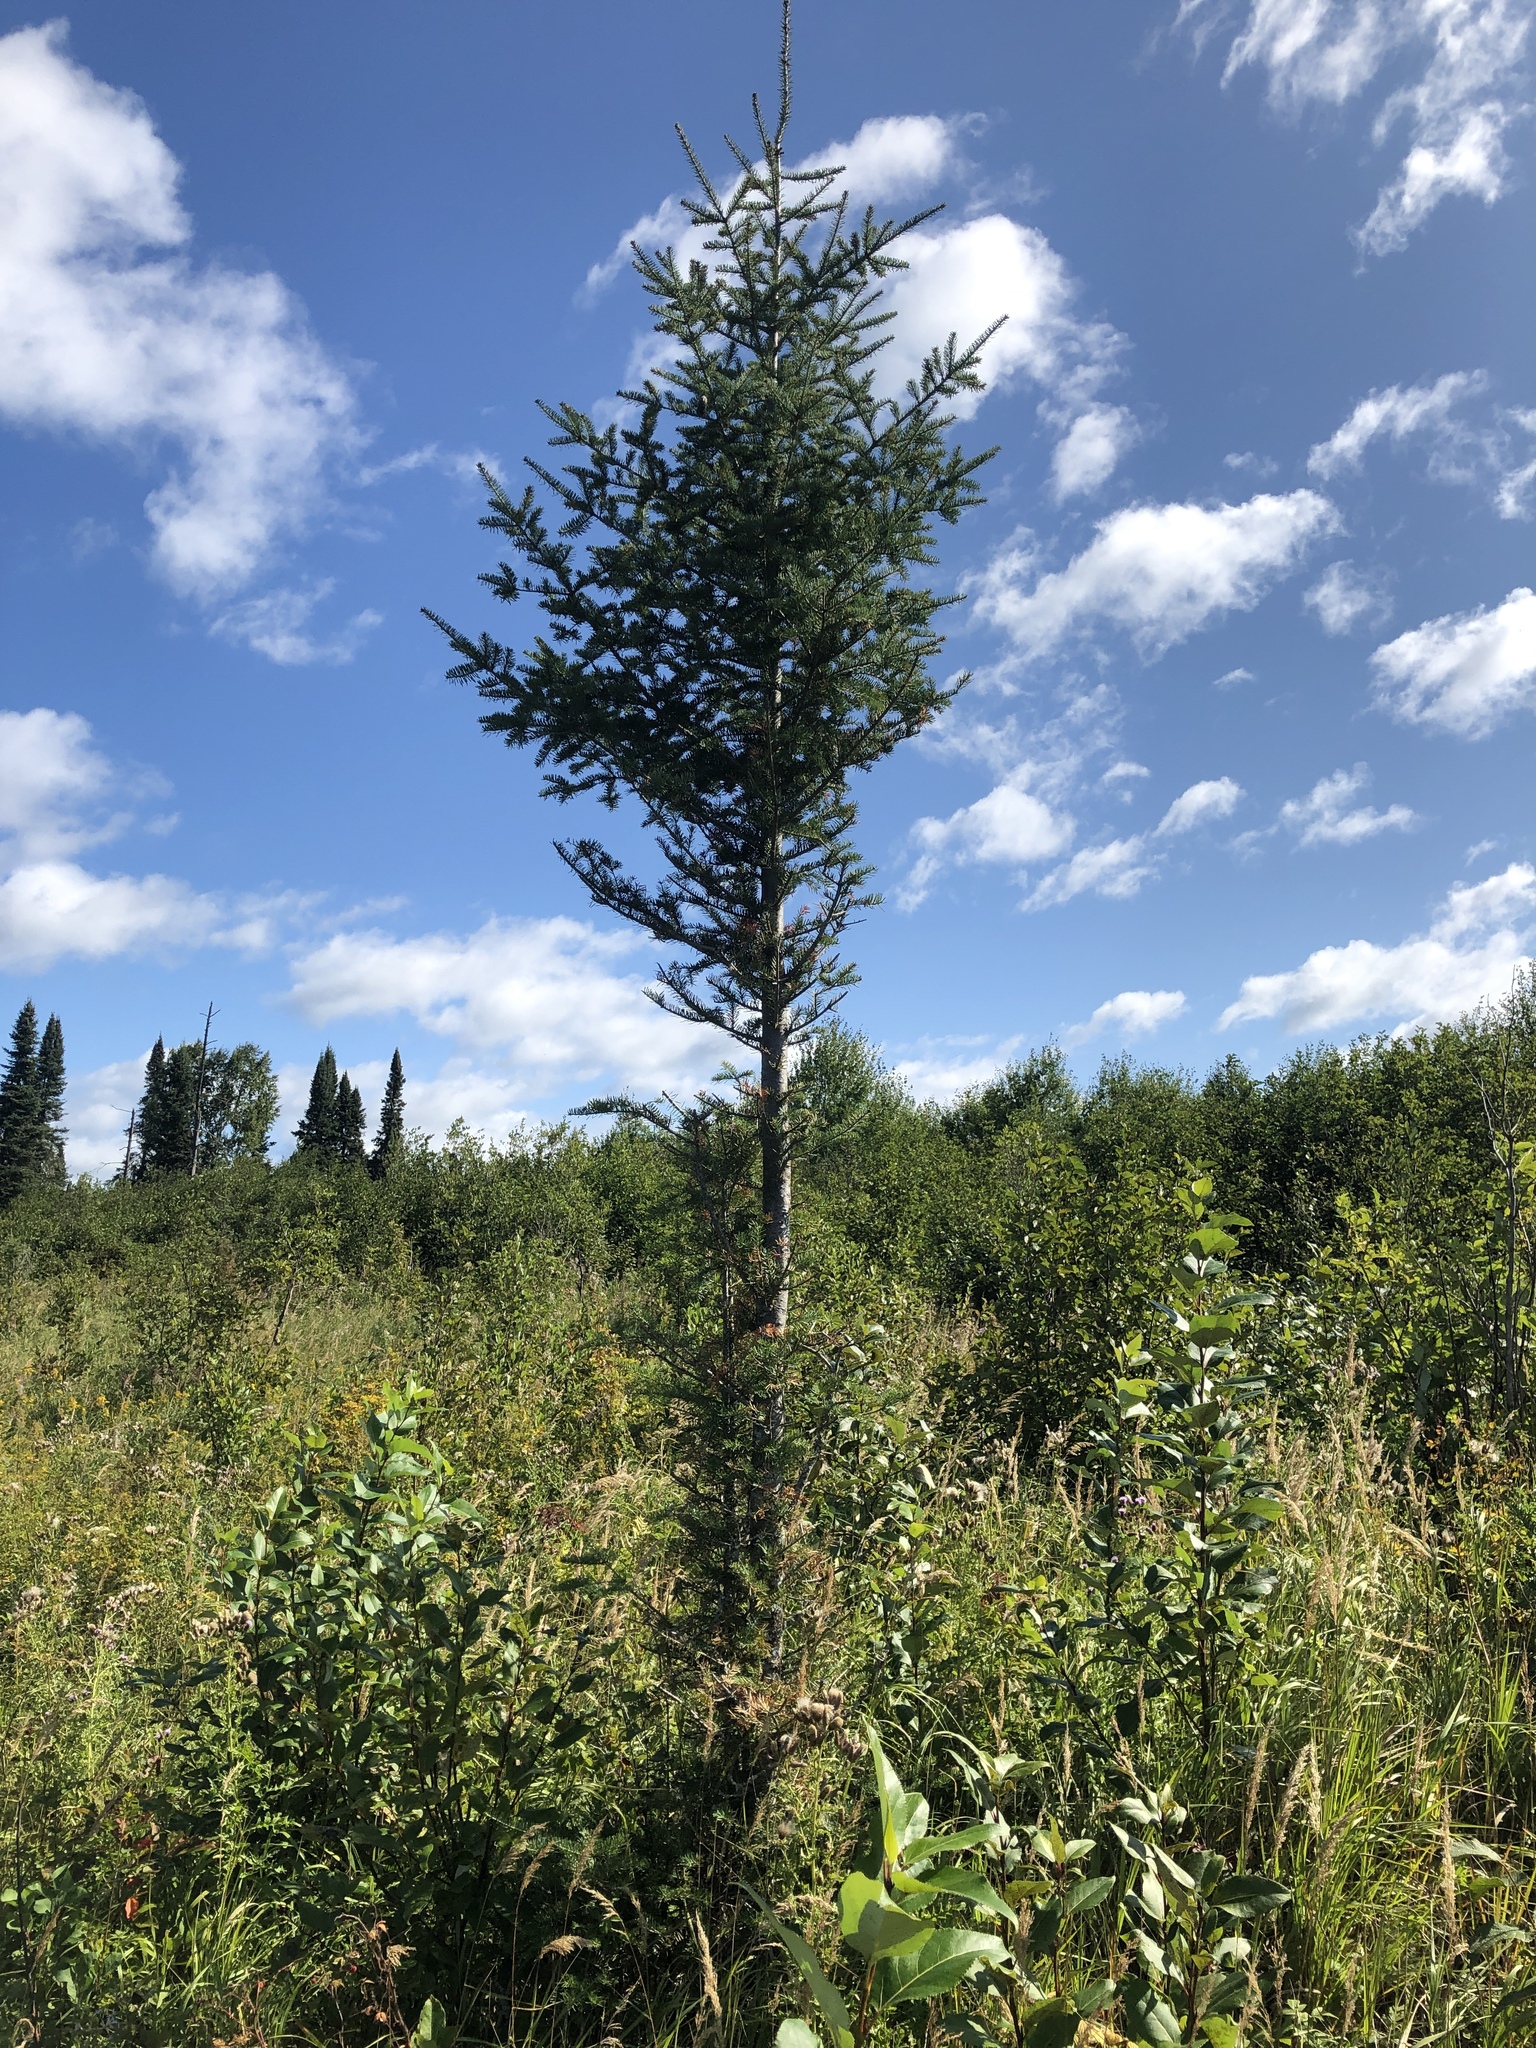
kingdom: Plantae
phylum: Tracheophyta
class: Pinopsida
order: Pinales
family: Pinaceae
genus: Abies
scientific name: Abies balsamea
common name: Balsam fir
